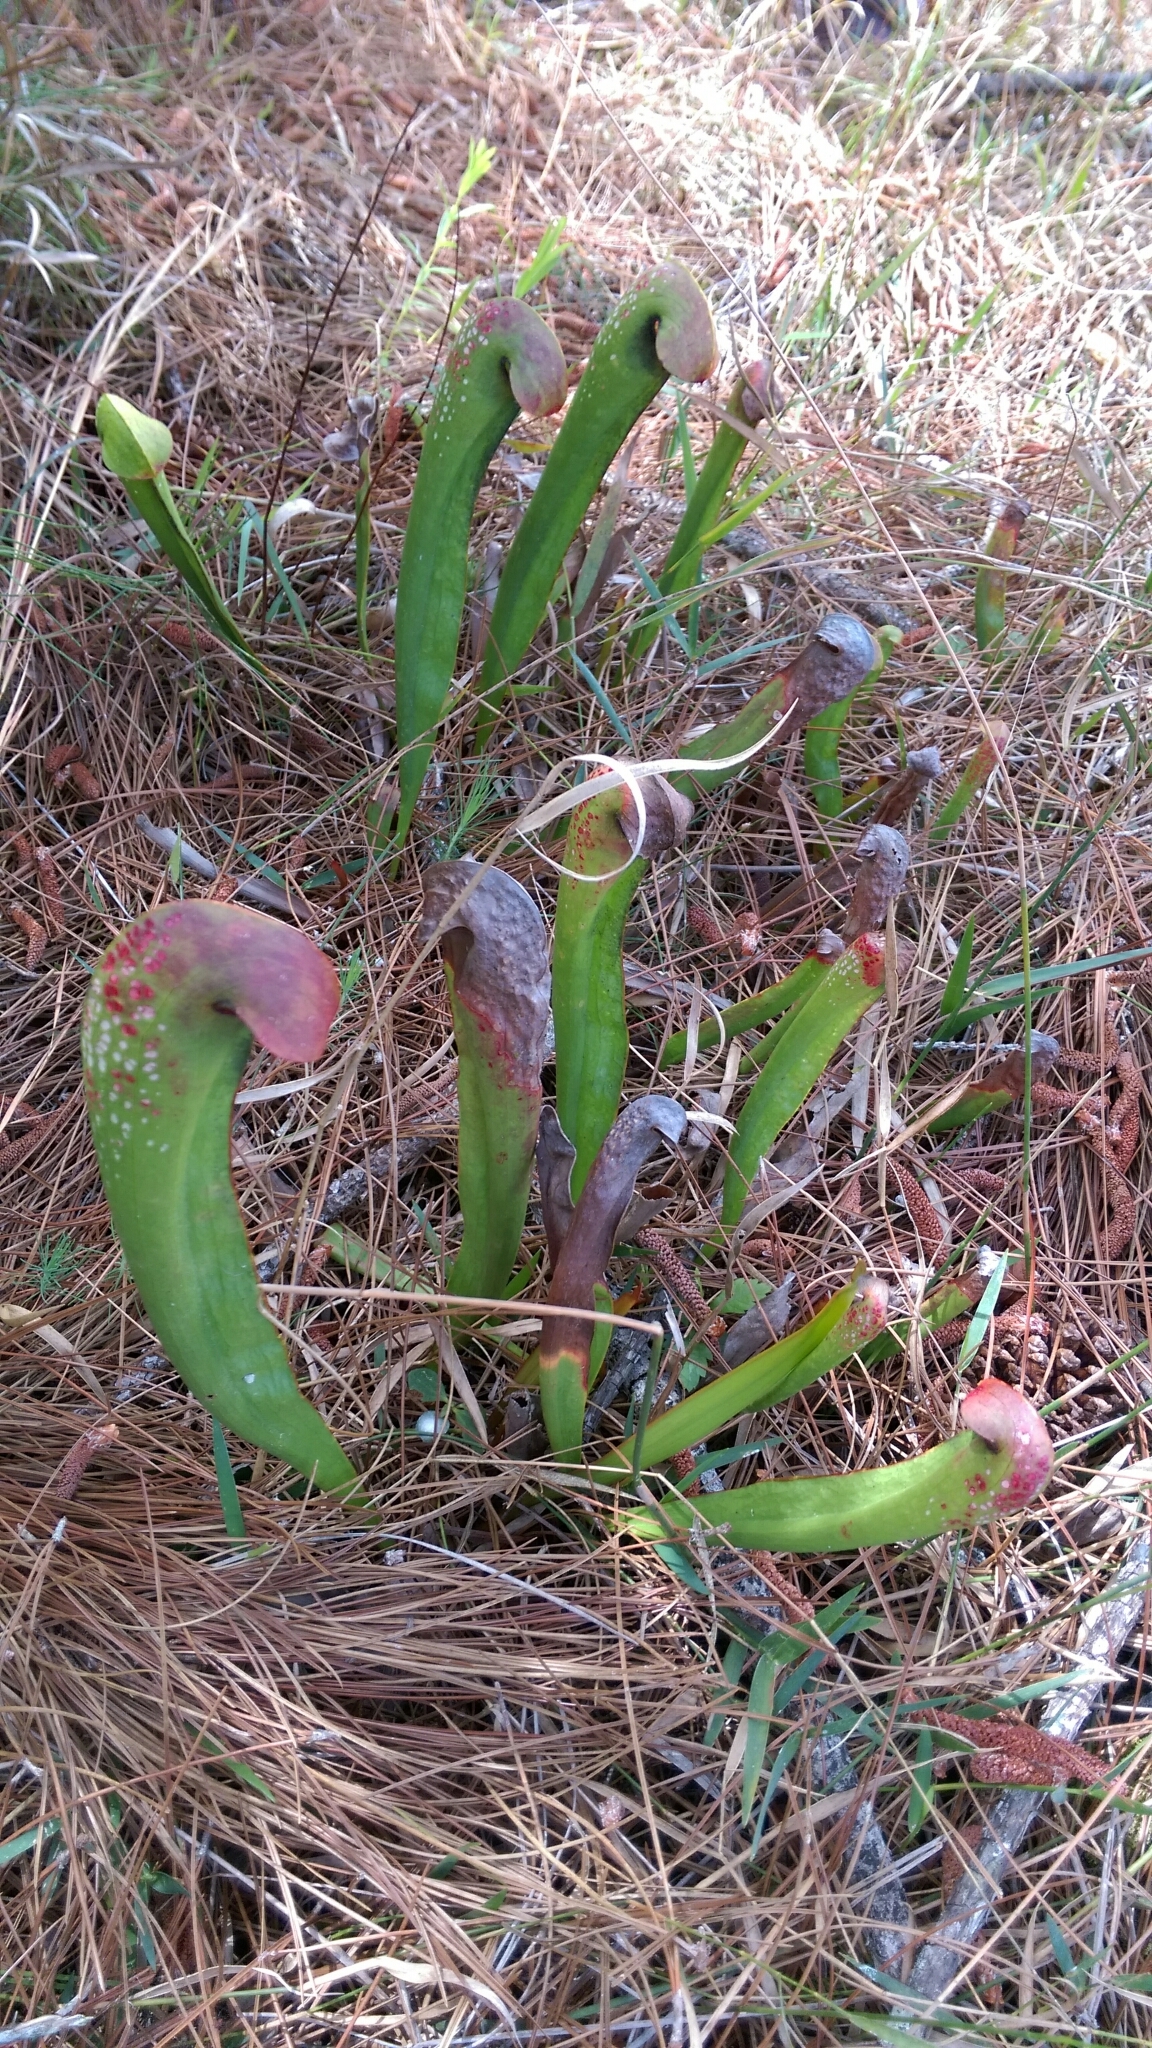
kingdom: Plantae
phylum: Tracheophyta
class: Magnoliopsida
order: Ericales
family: Sarraceniaceae
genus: Sarracenia
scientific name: Sarracenia minor
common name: Rainhat-trumpet
